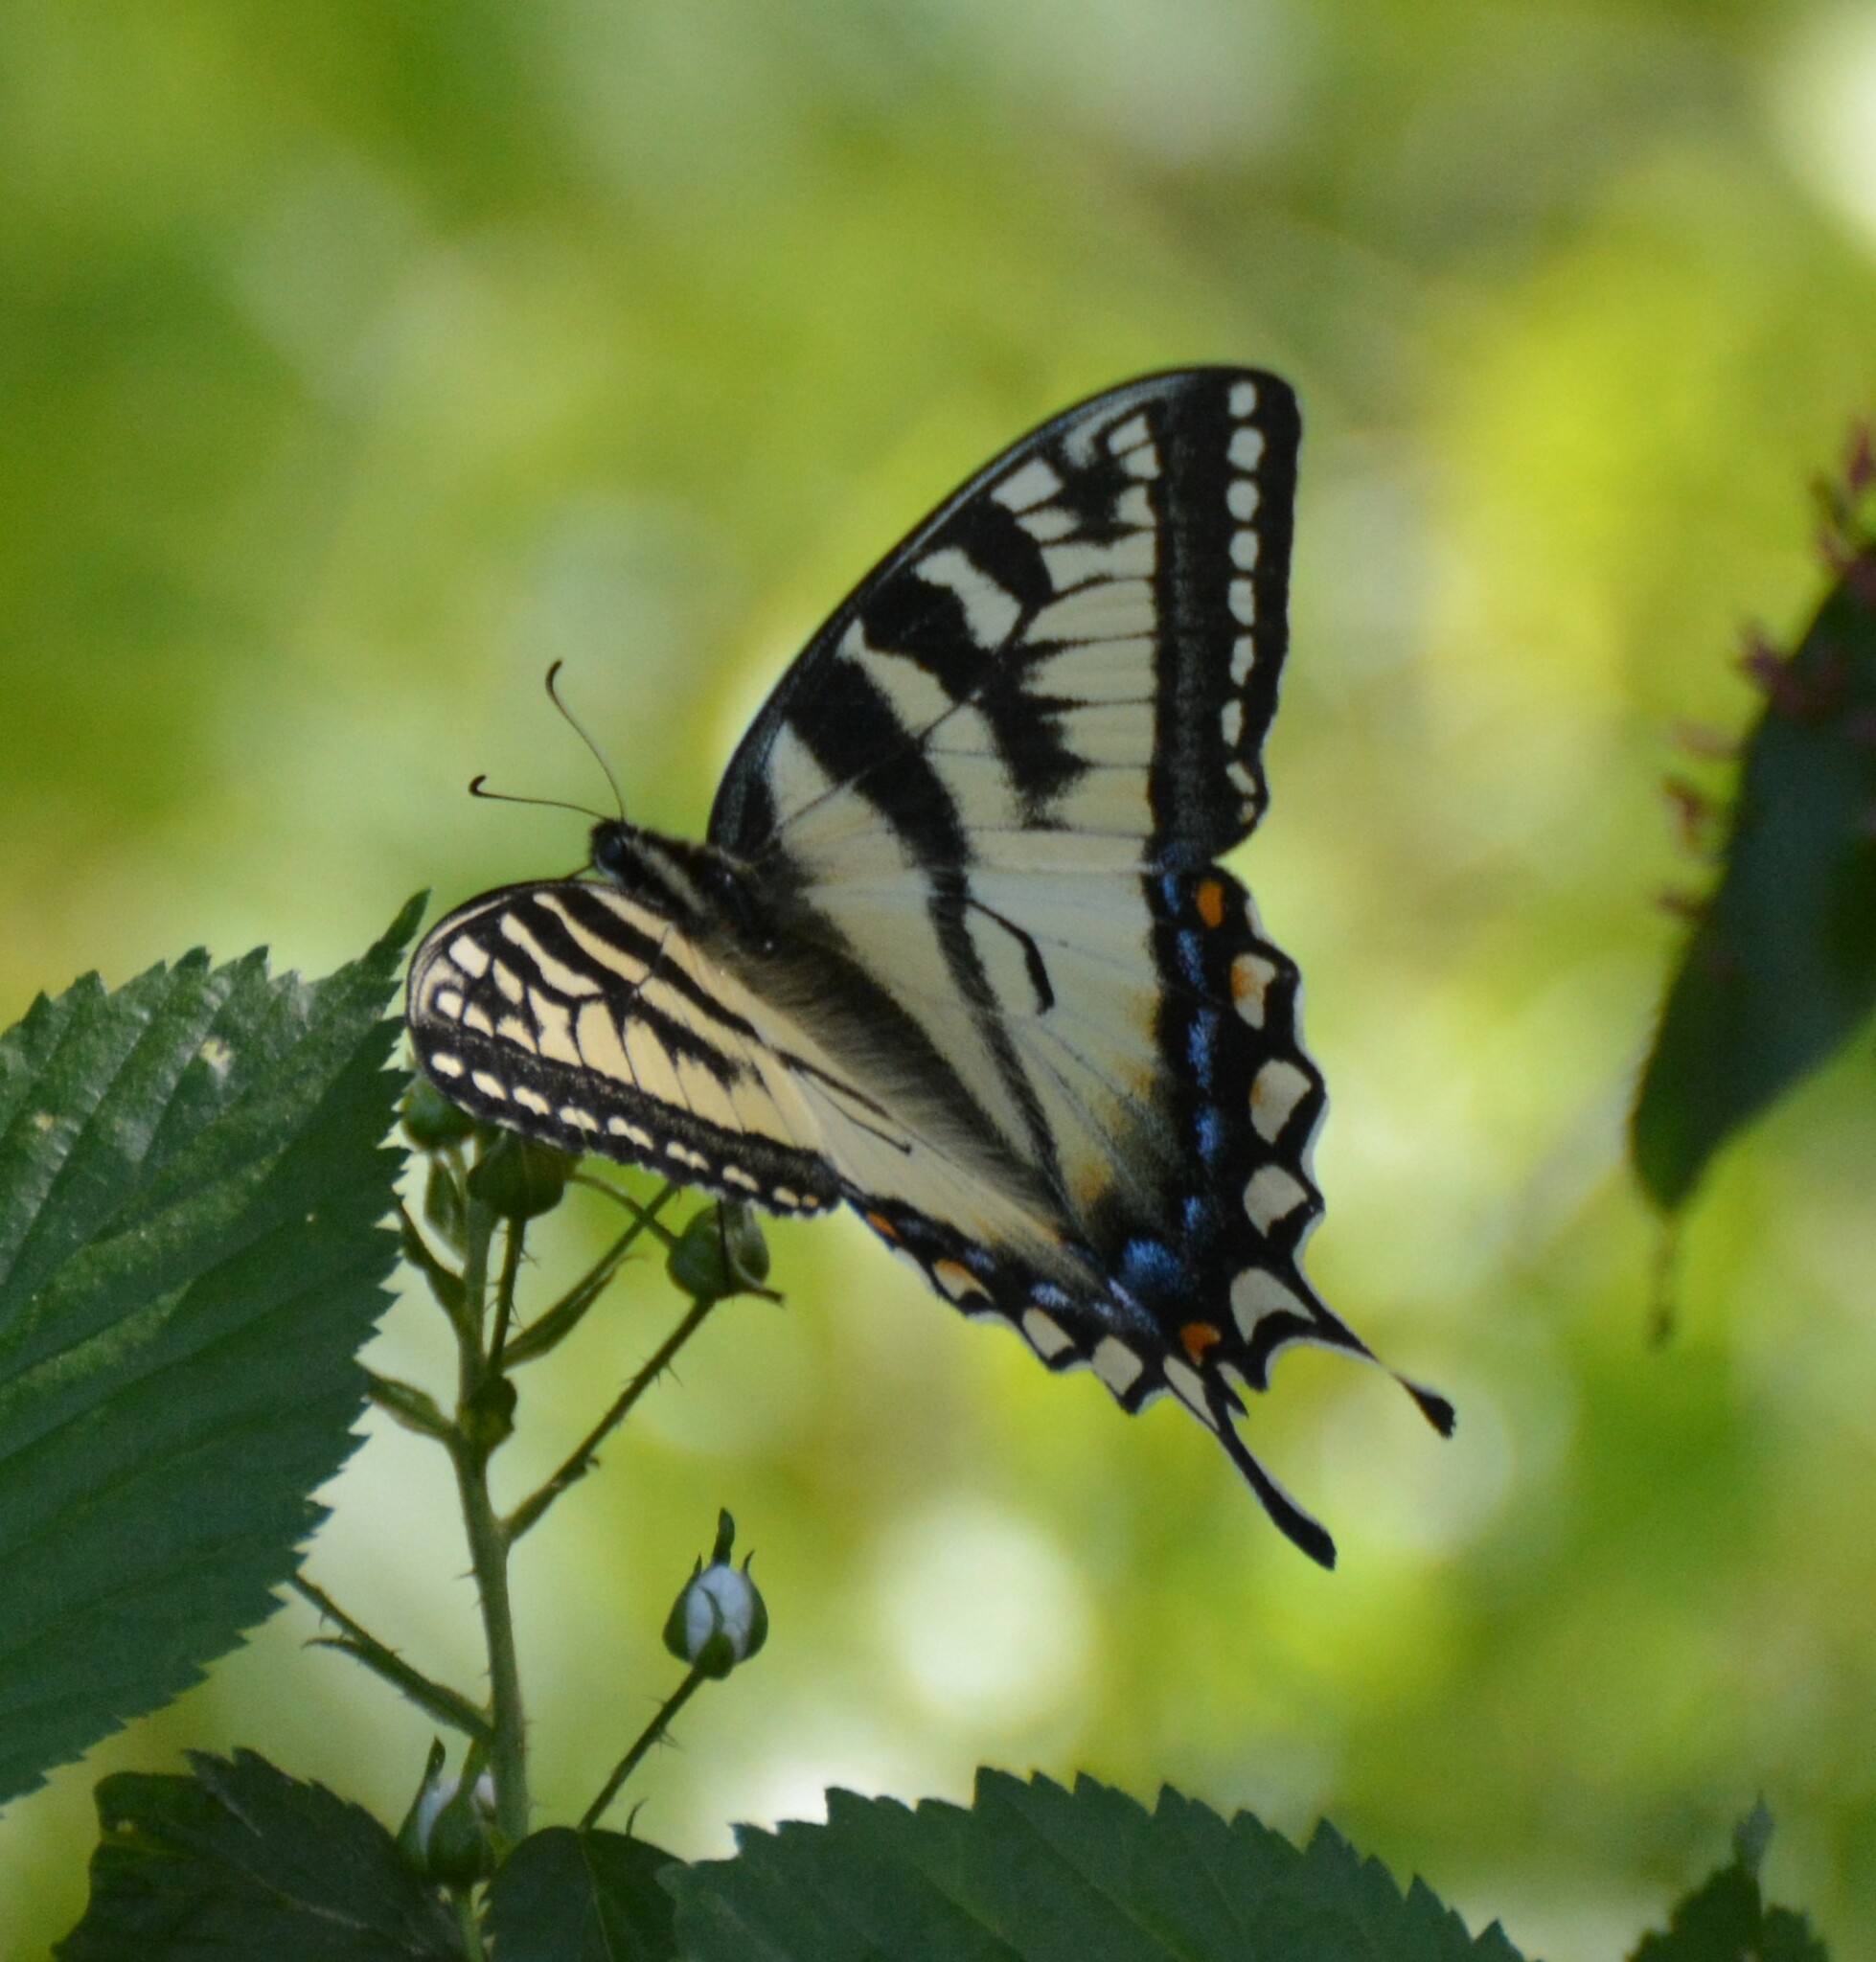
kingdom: Animalia
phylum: Arthropoda
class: Insecta
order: Lepidoptera
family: Papilionidae
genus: Papilio
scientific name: Papilio canadensis
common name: Canadian tiger swallowtail
